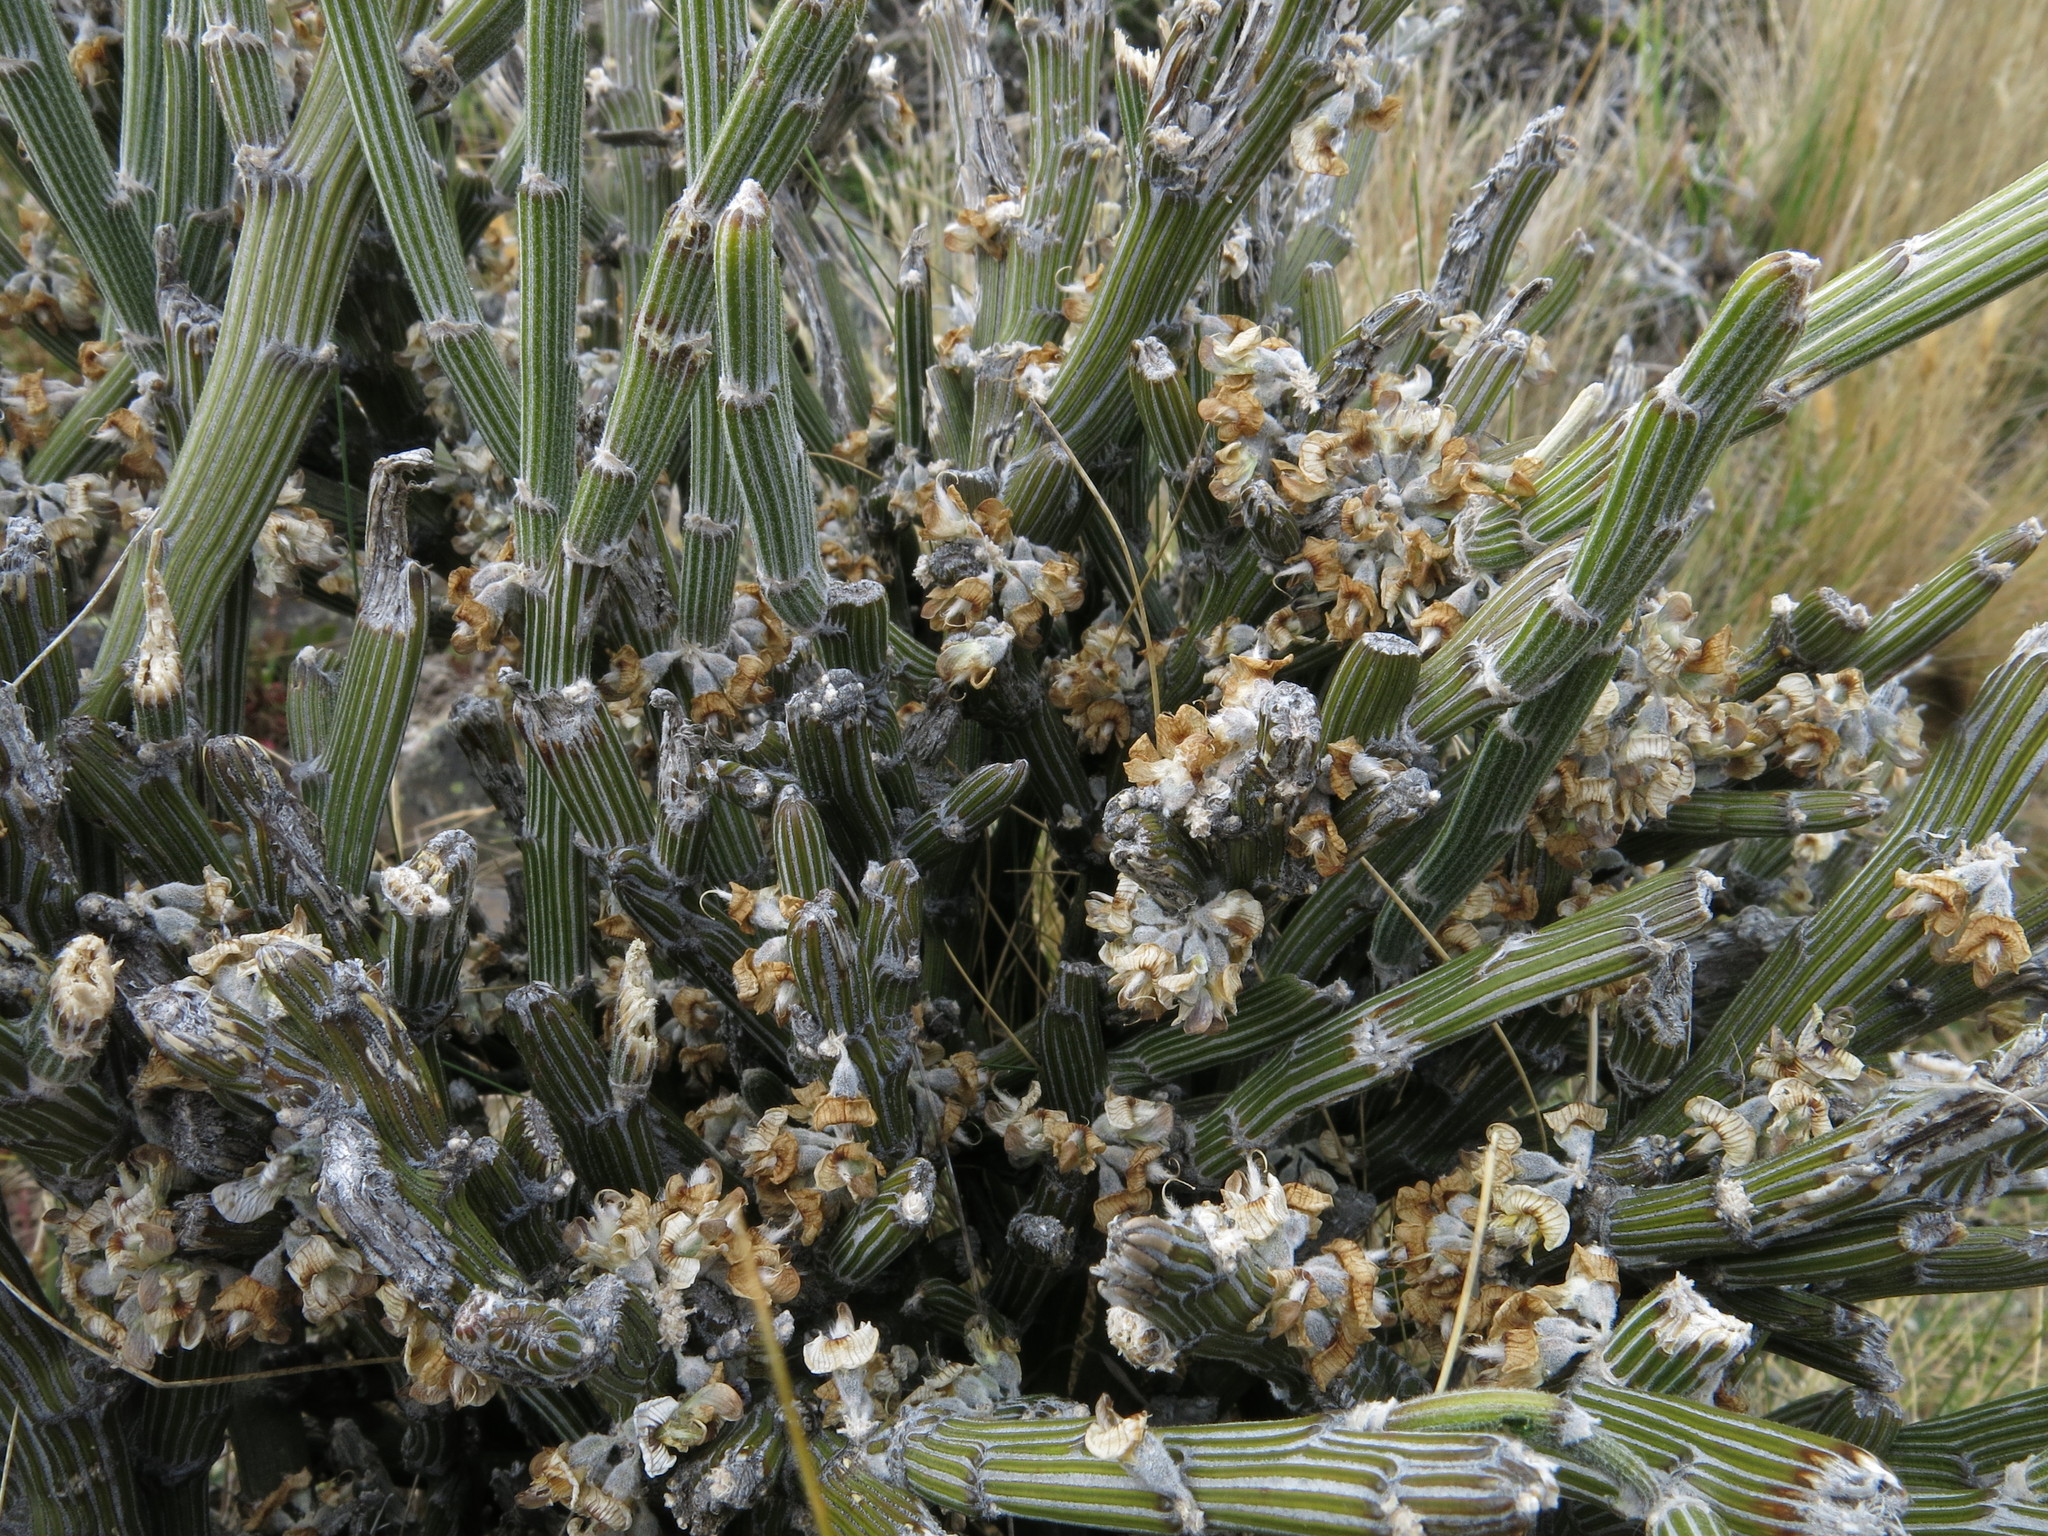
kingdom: Plantae
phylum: Tracheophyta
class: Magnoliopsida
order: Fabales
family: Fabaceae
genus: Carmichaelia
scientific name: Carmichaelia crassicaulis
